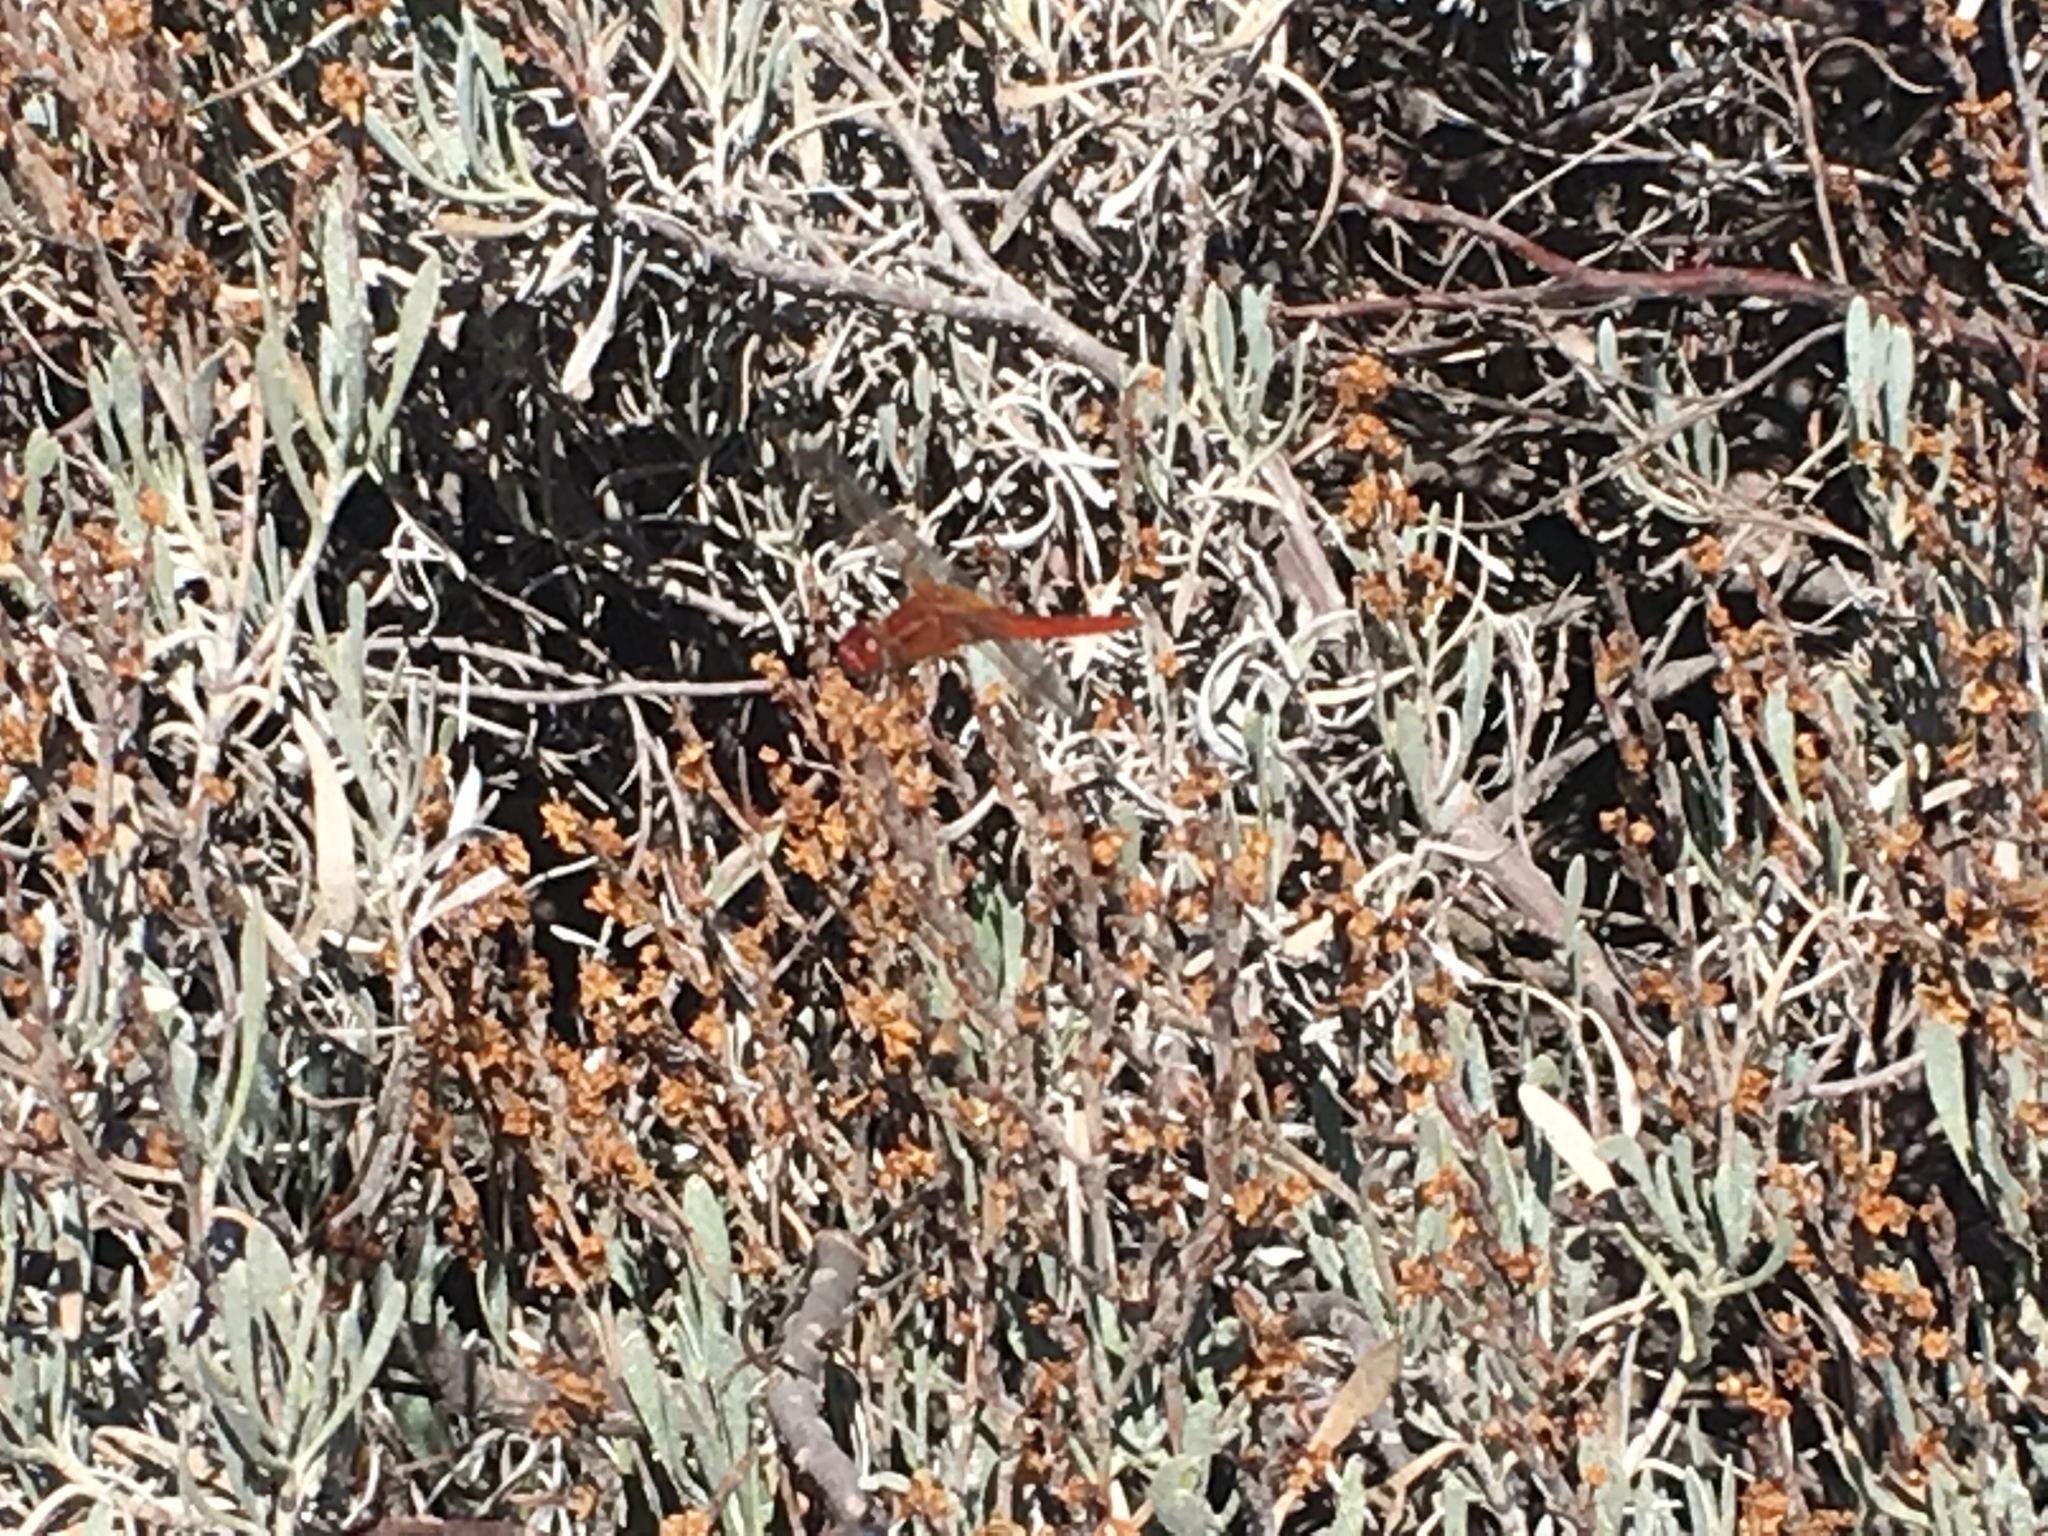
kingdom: Animalia
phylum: Arthropoda
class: Insecta
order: Odonata
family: Libellulidae
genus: Crocothemis
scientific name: Crocothemis erythraea
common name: Scarlet dragonfly
